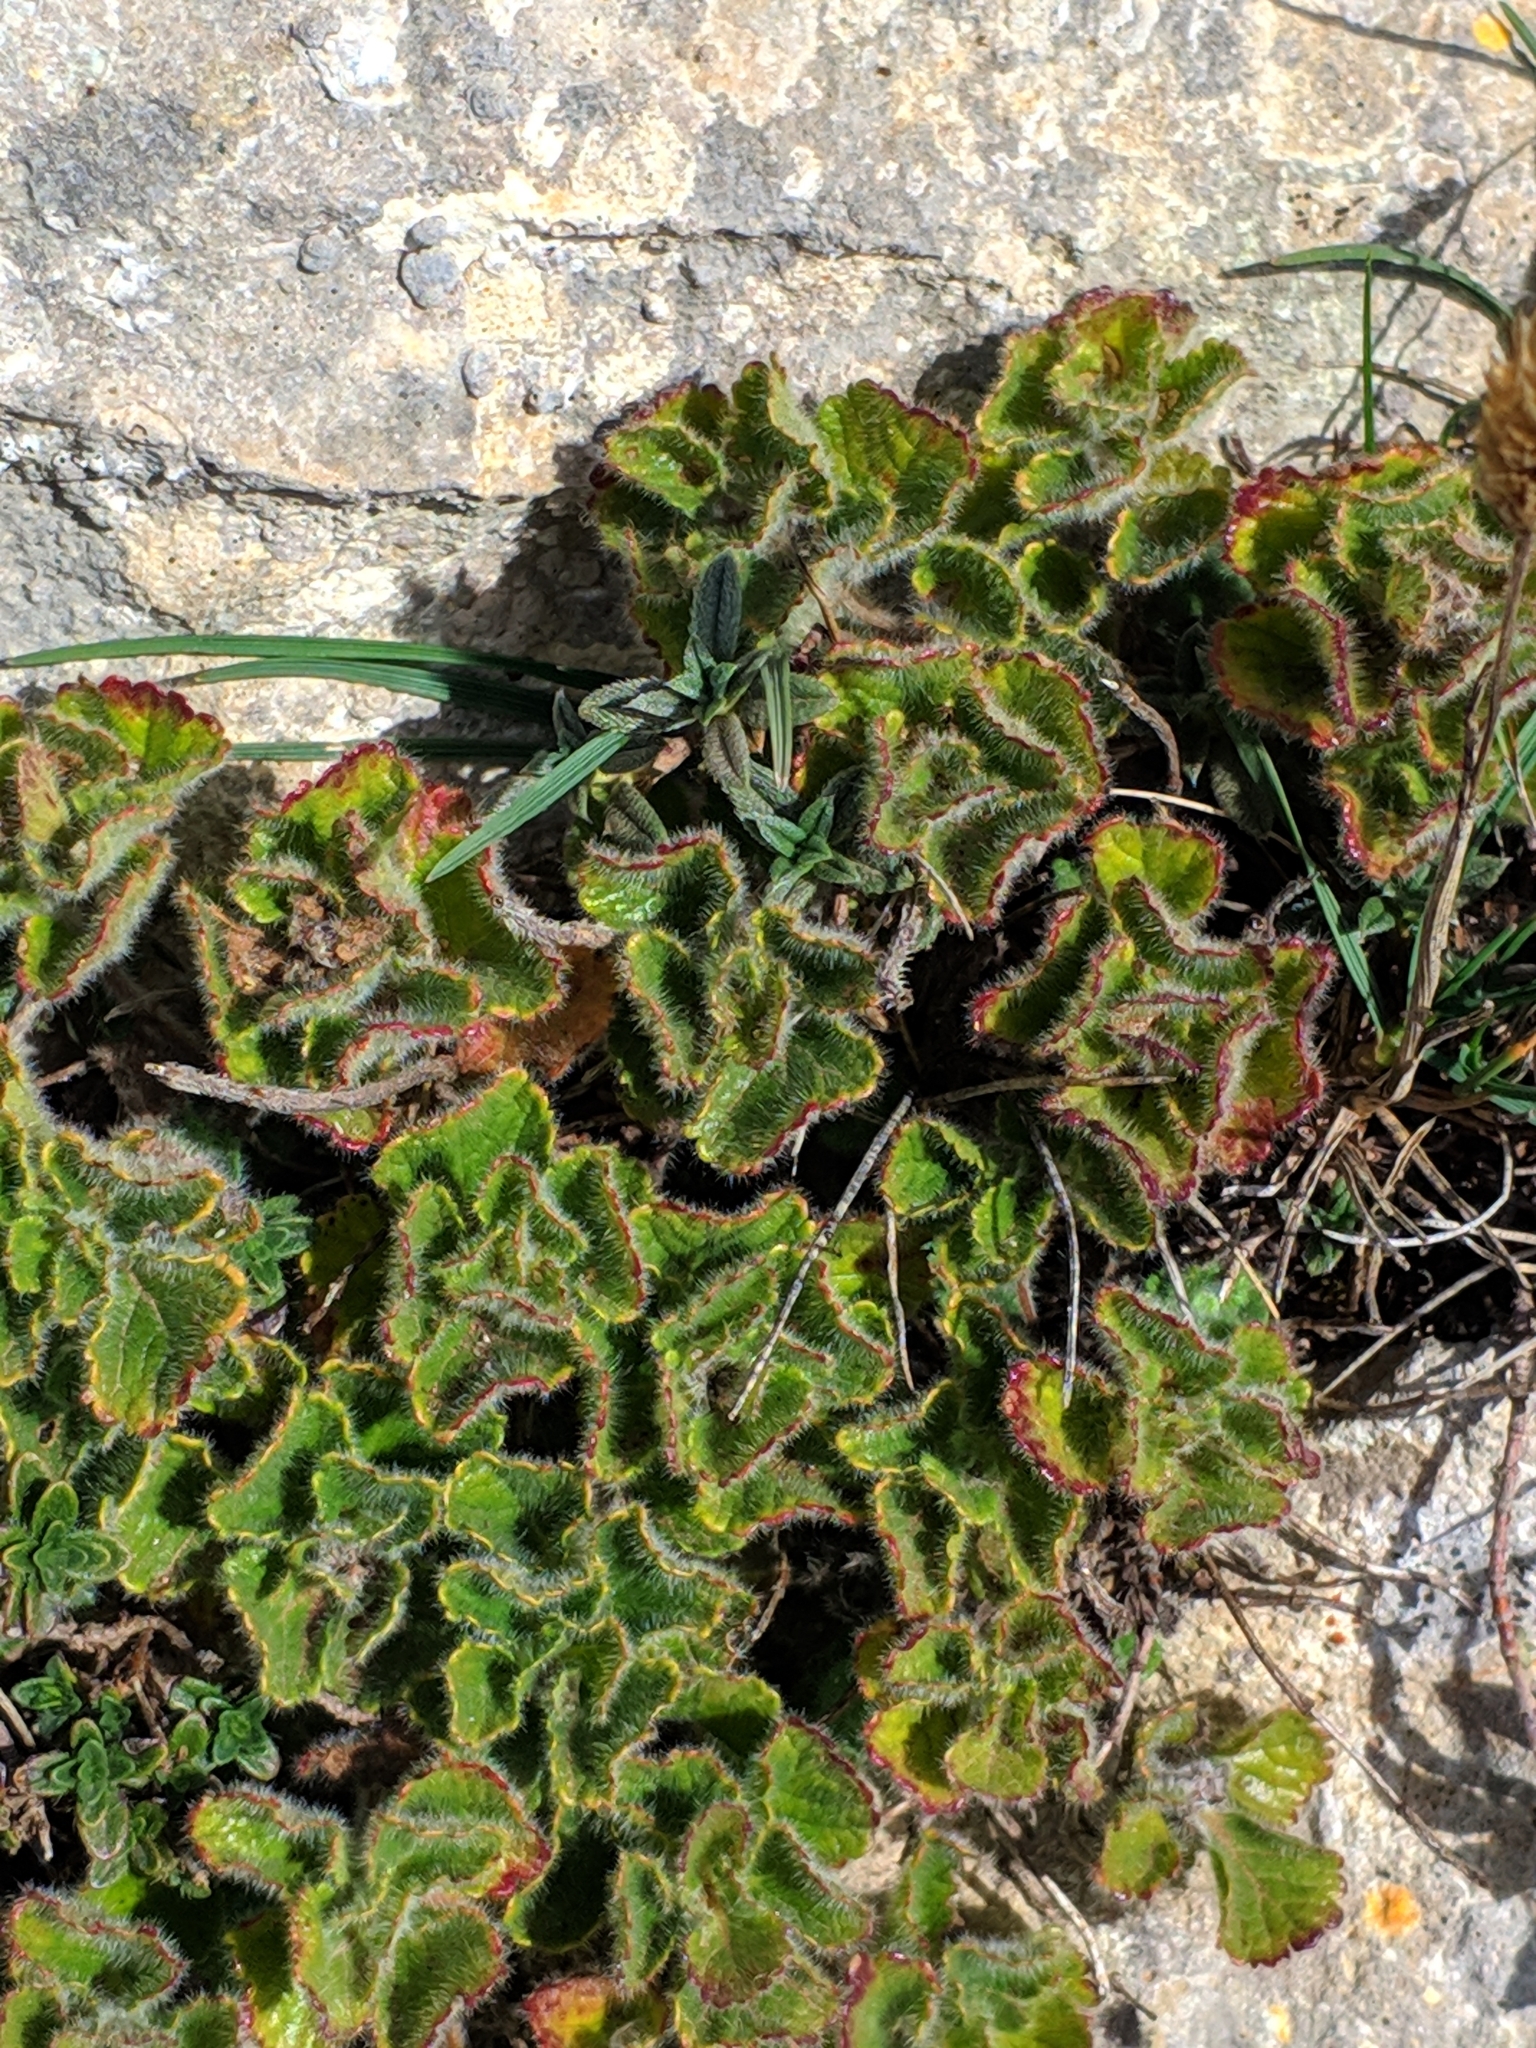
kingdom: Plantae
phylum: Tracheophyta
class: Magnoliopsida
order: Lamiales
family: Lamiaceae
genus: Teucrium
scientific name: Teucrium pyrenaicum
